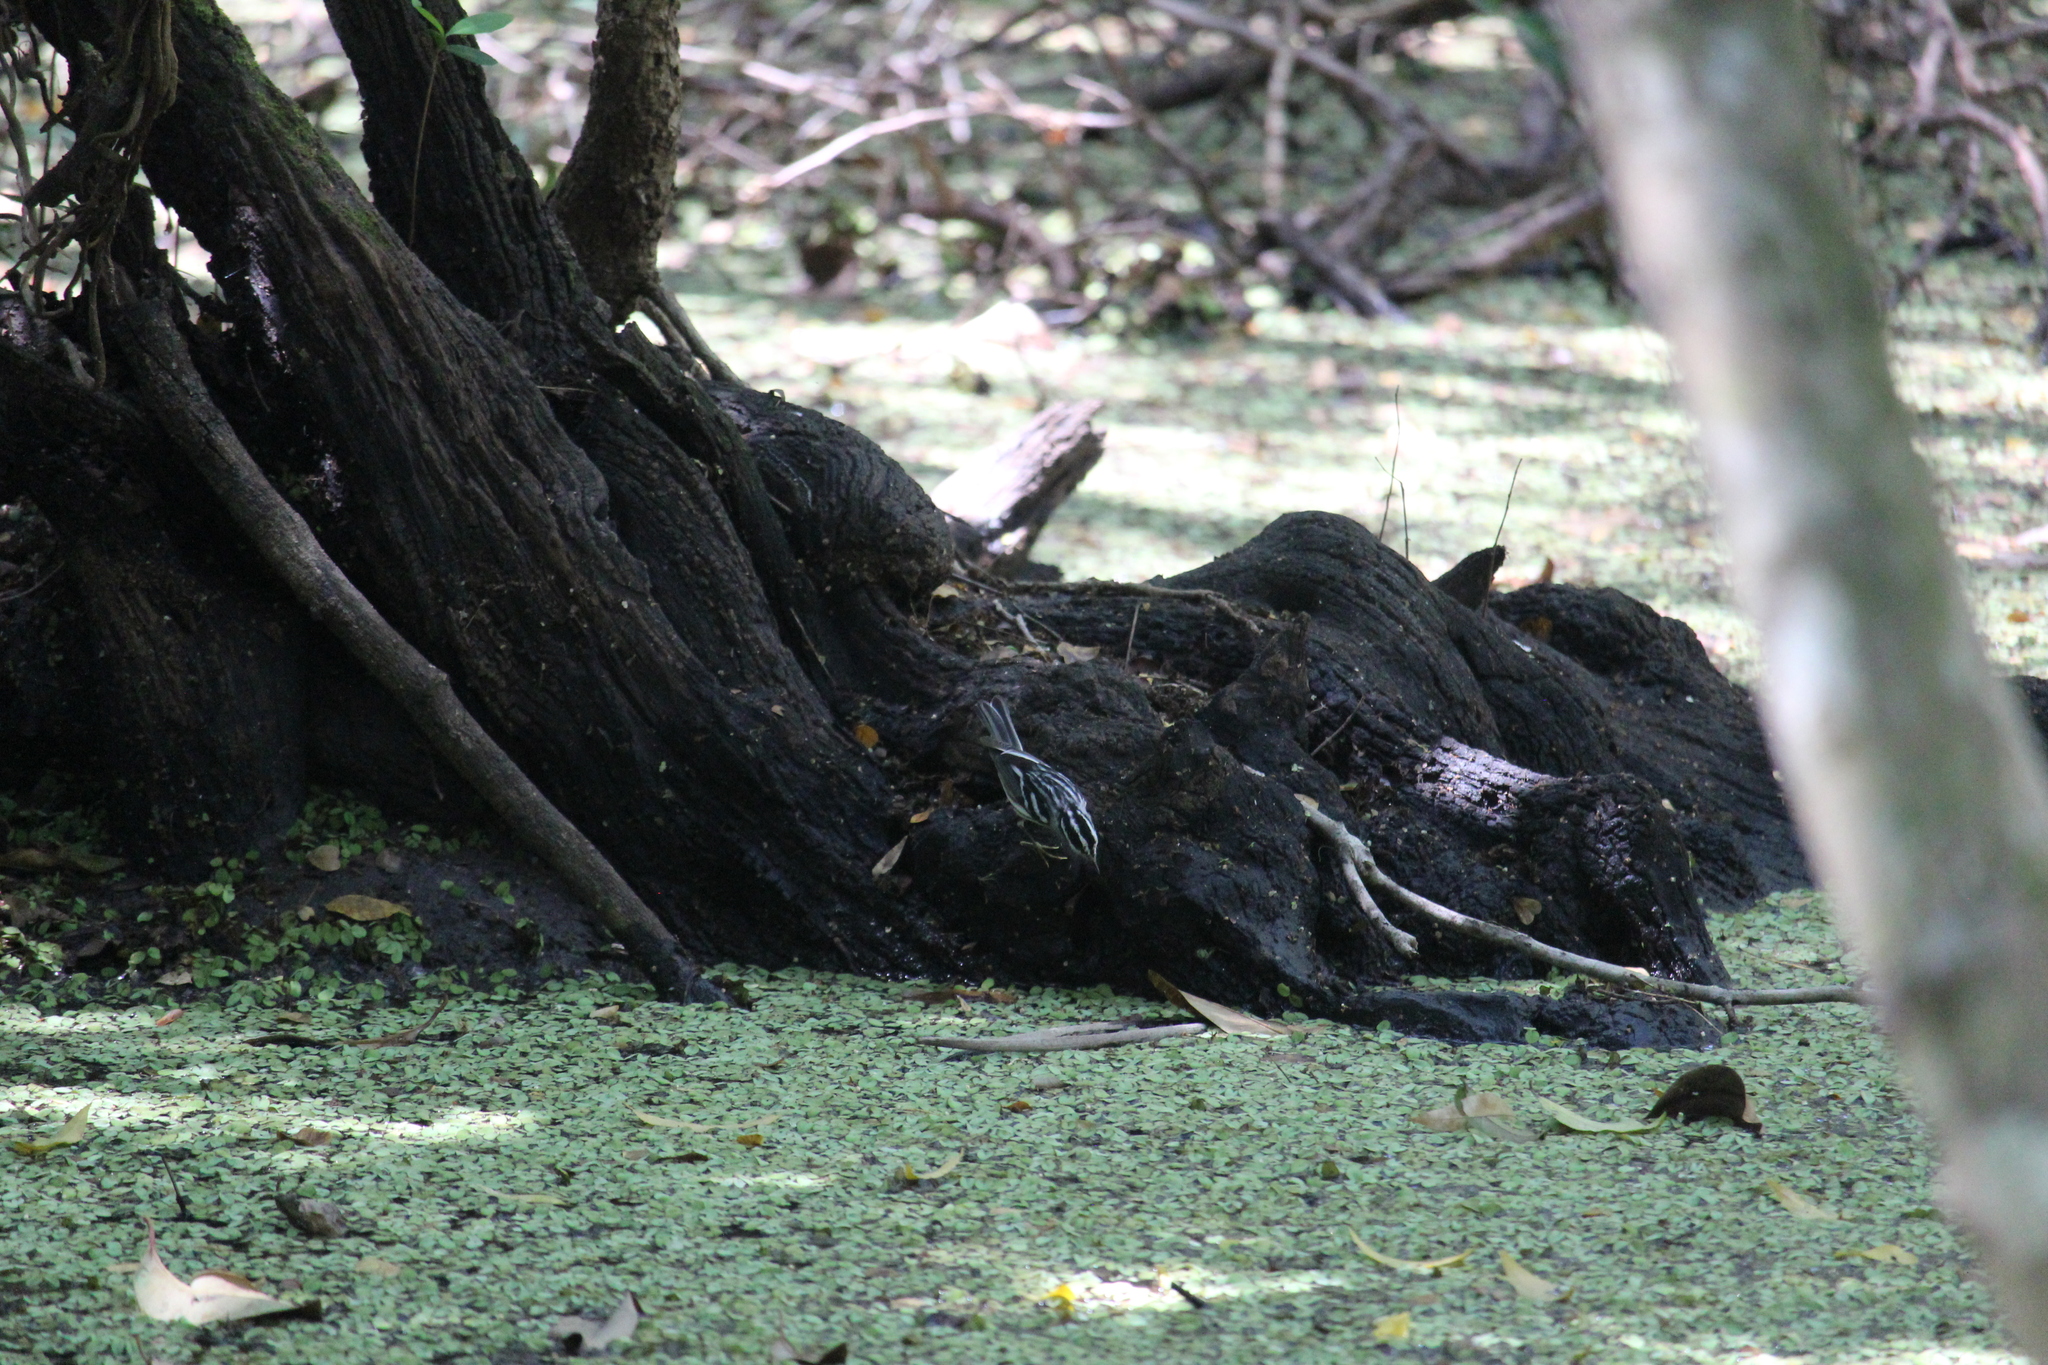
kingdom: Animalia
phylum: Chordata
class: Aves
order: Passeriformes
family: Parulidae
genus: Mniotilta
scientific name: Mniotilta varia
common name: Black-and-white warbler
